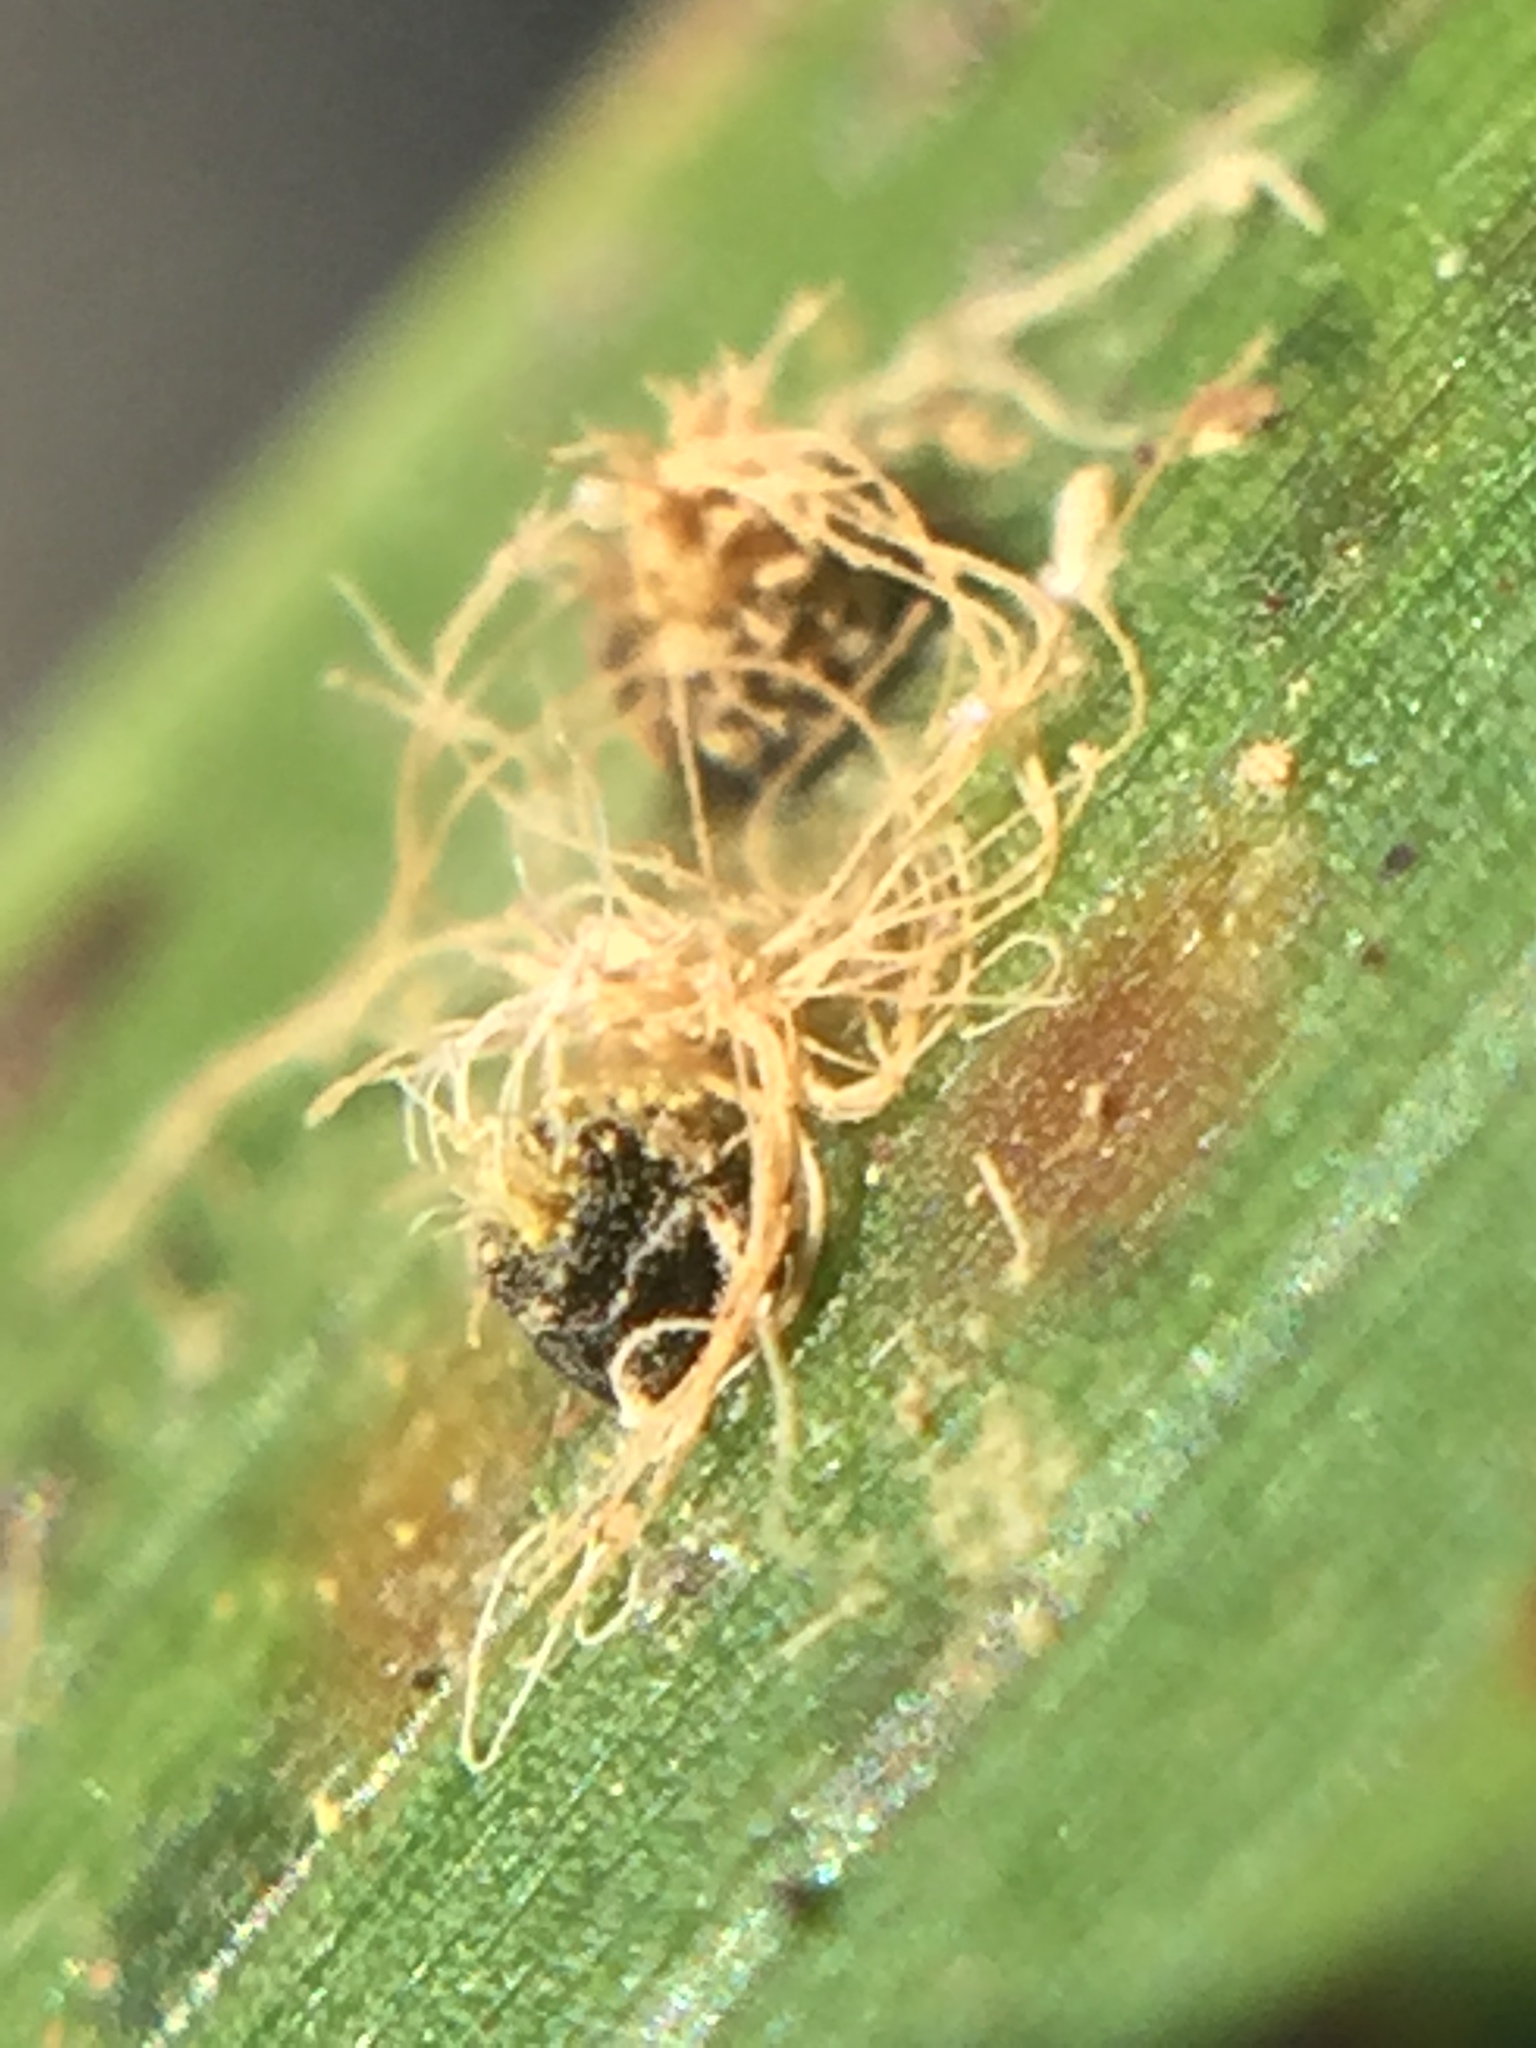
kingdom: Fungi
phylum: Basidiomycota
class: Exobasidiomycetes
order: Exobasidiales
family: Graphiolaceae
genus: Graphiola
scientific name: Graphiola phoenicis
